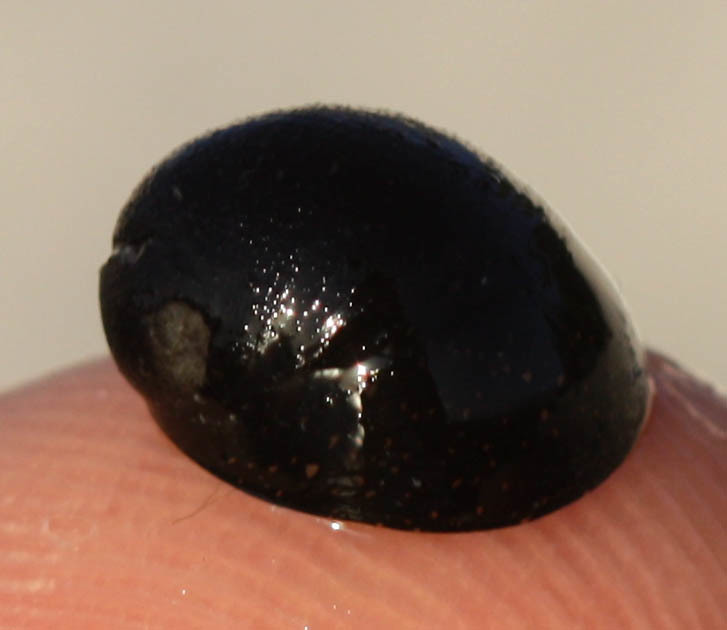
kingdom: Animalia
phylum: Mollusca
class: Gastropoda
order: Cycloneritida
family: Neritidae
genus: Nerita
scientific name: Nerita picea
